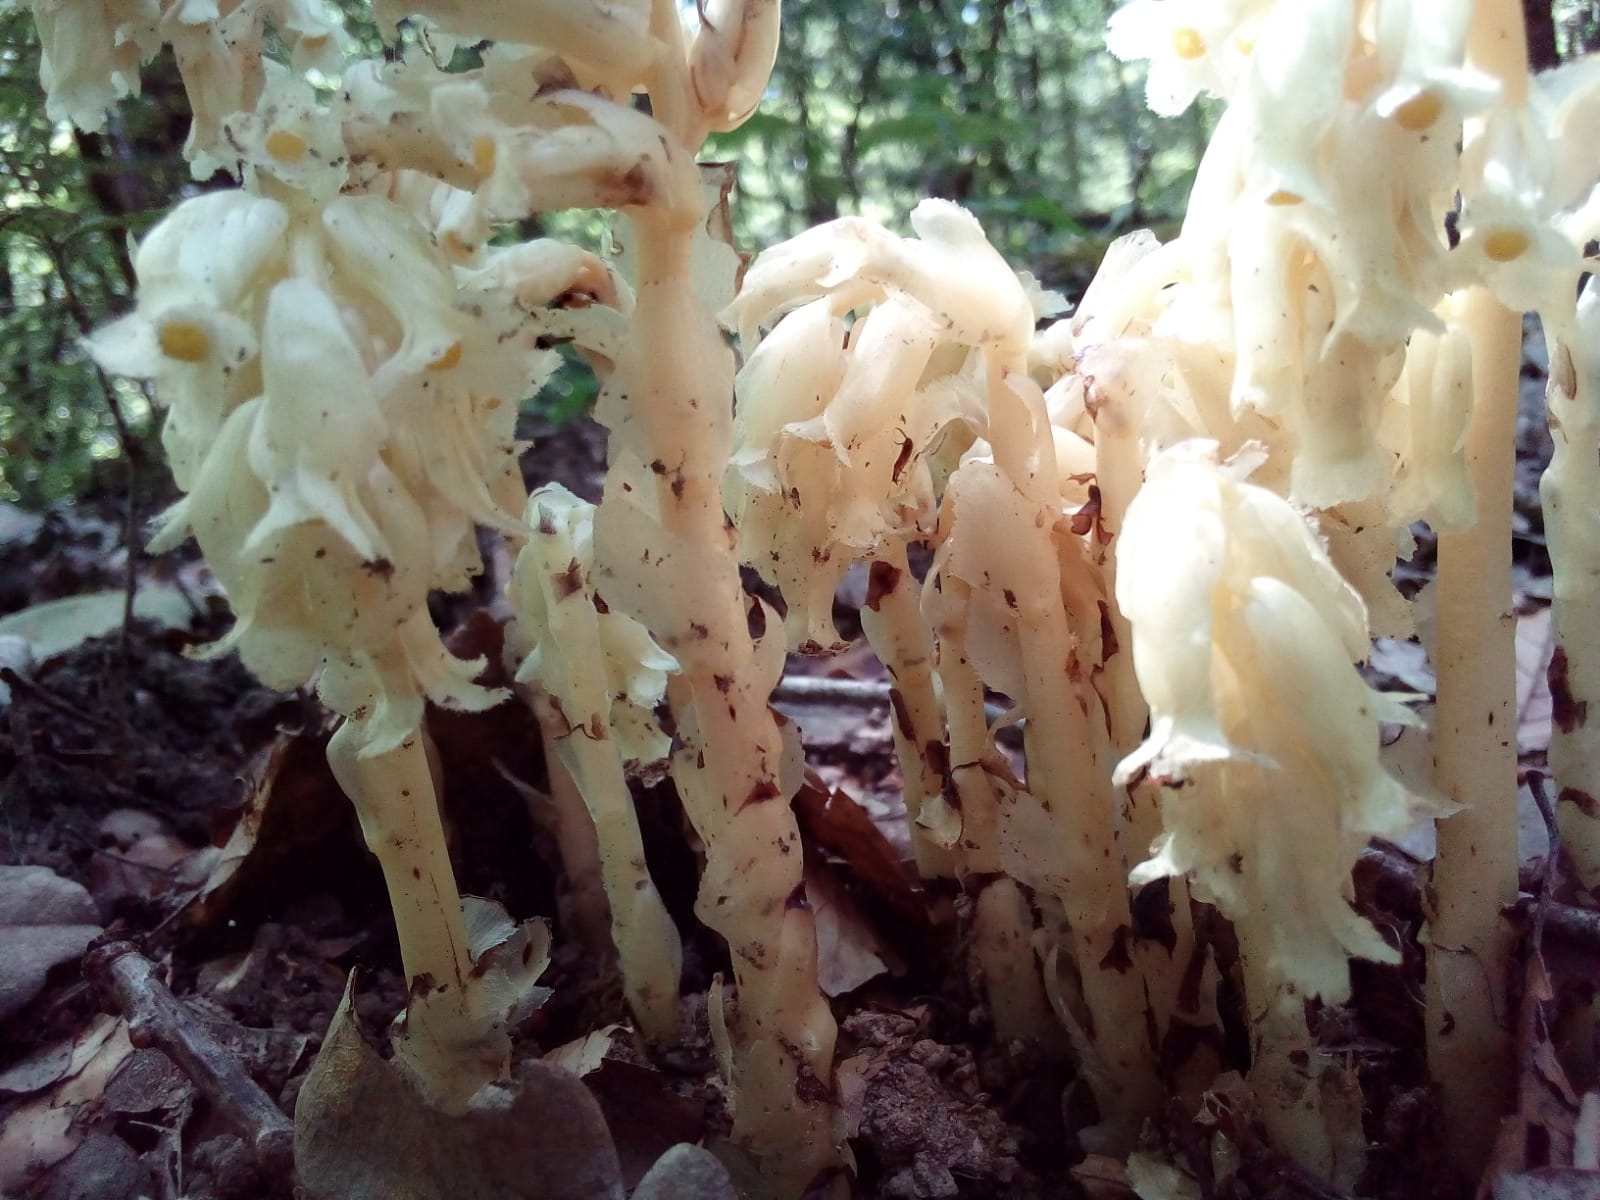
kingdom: Plantae
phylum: Tracheophyta
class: Magnoliopsida
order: Ericales
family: Ericaceae
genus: Hypopitys
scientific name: Hypopitys monotropa
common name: Yellow bird's-nest
